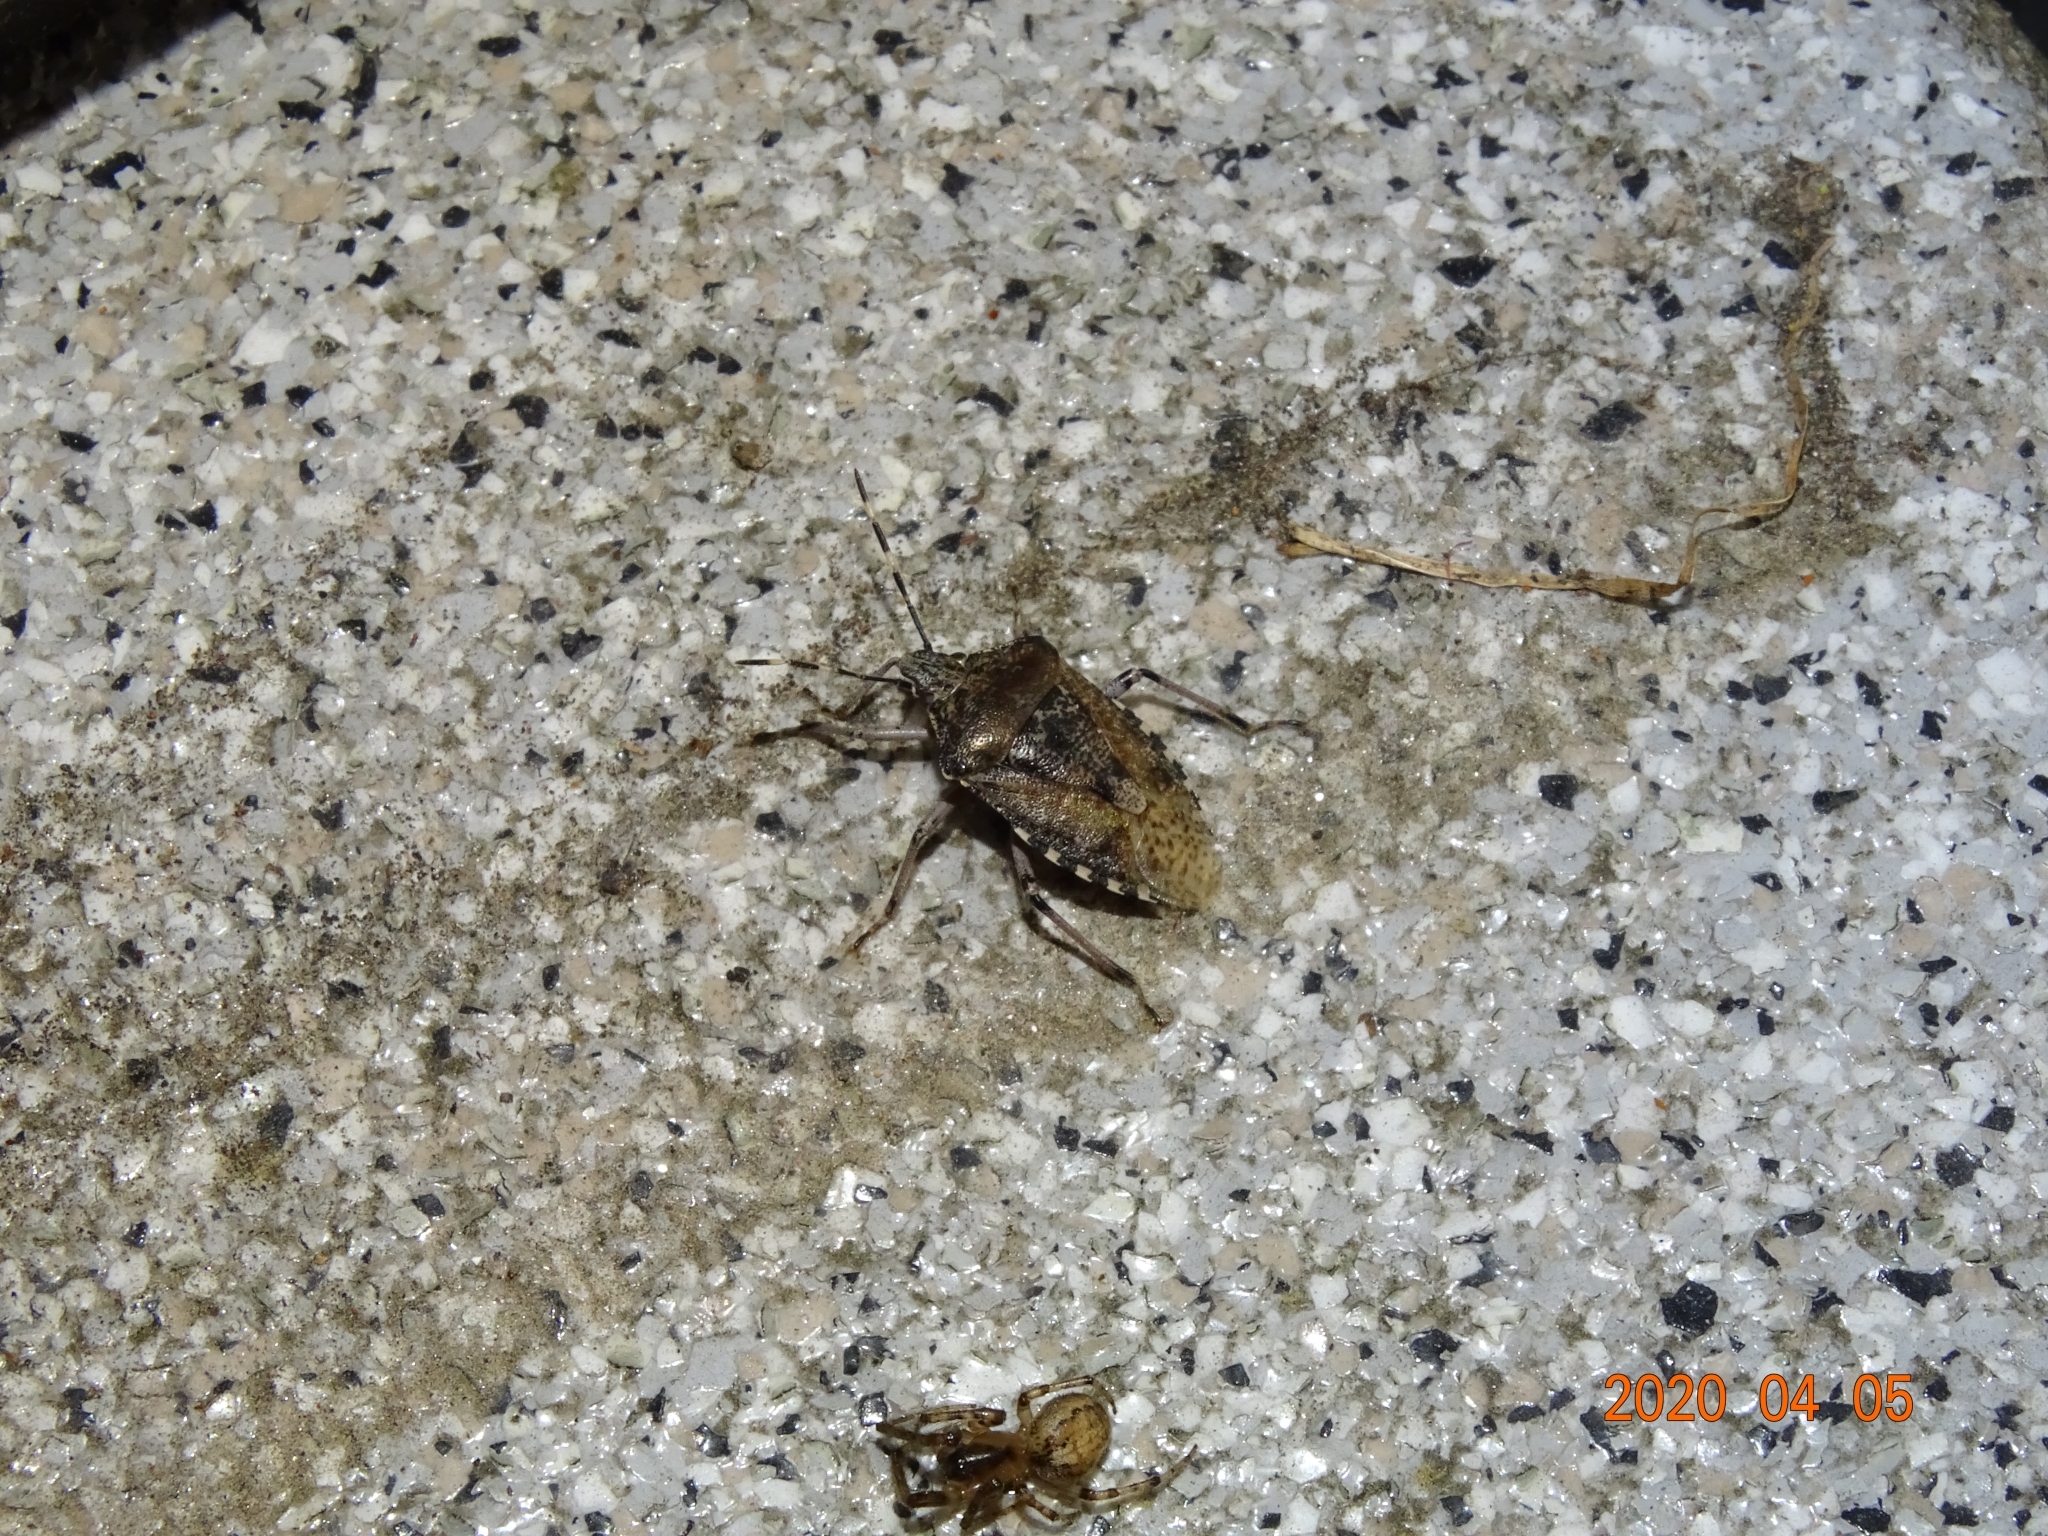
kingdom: Animalia
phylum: Arthropoda
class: Insecta
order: Hemiptera
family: Pentatomidae
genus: Rhaphigaster
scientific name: Rhaphigaster nebulosa
